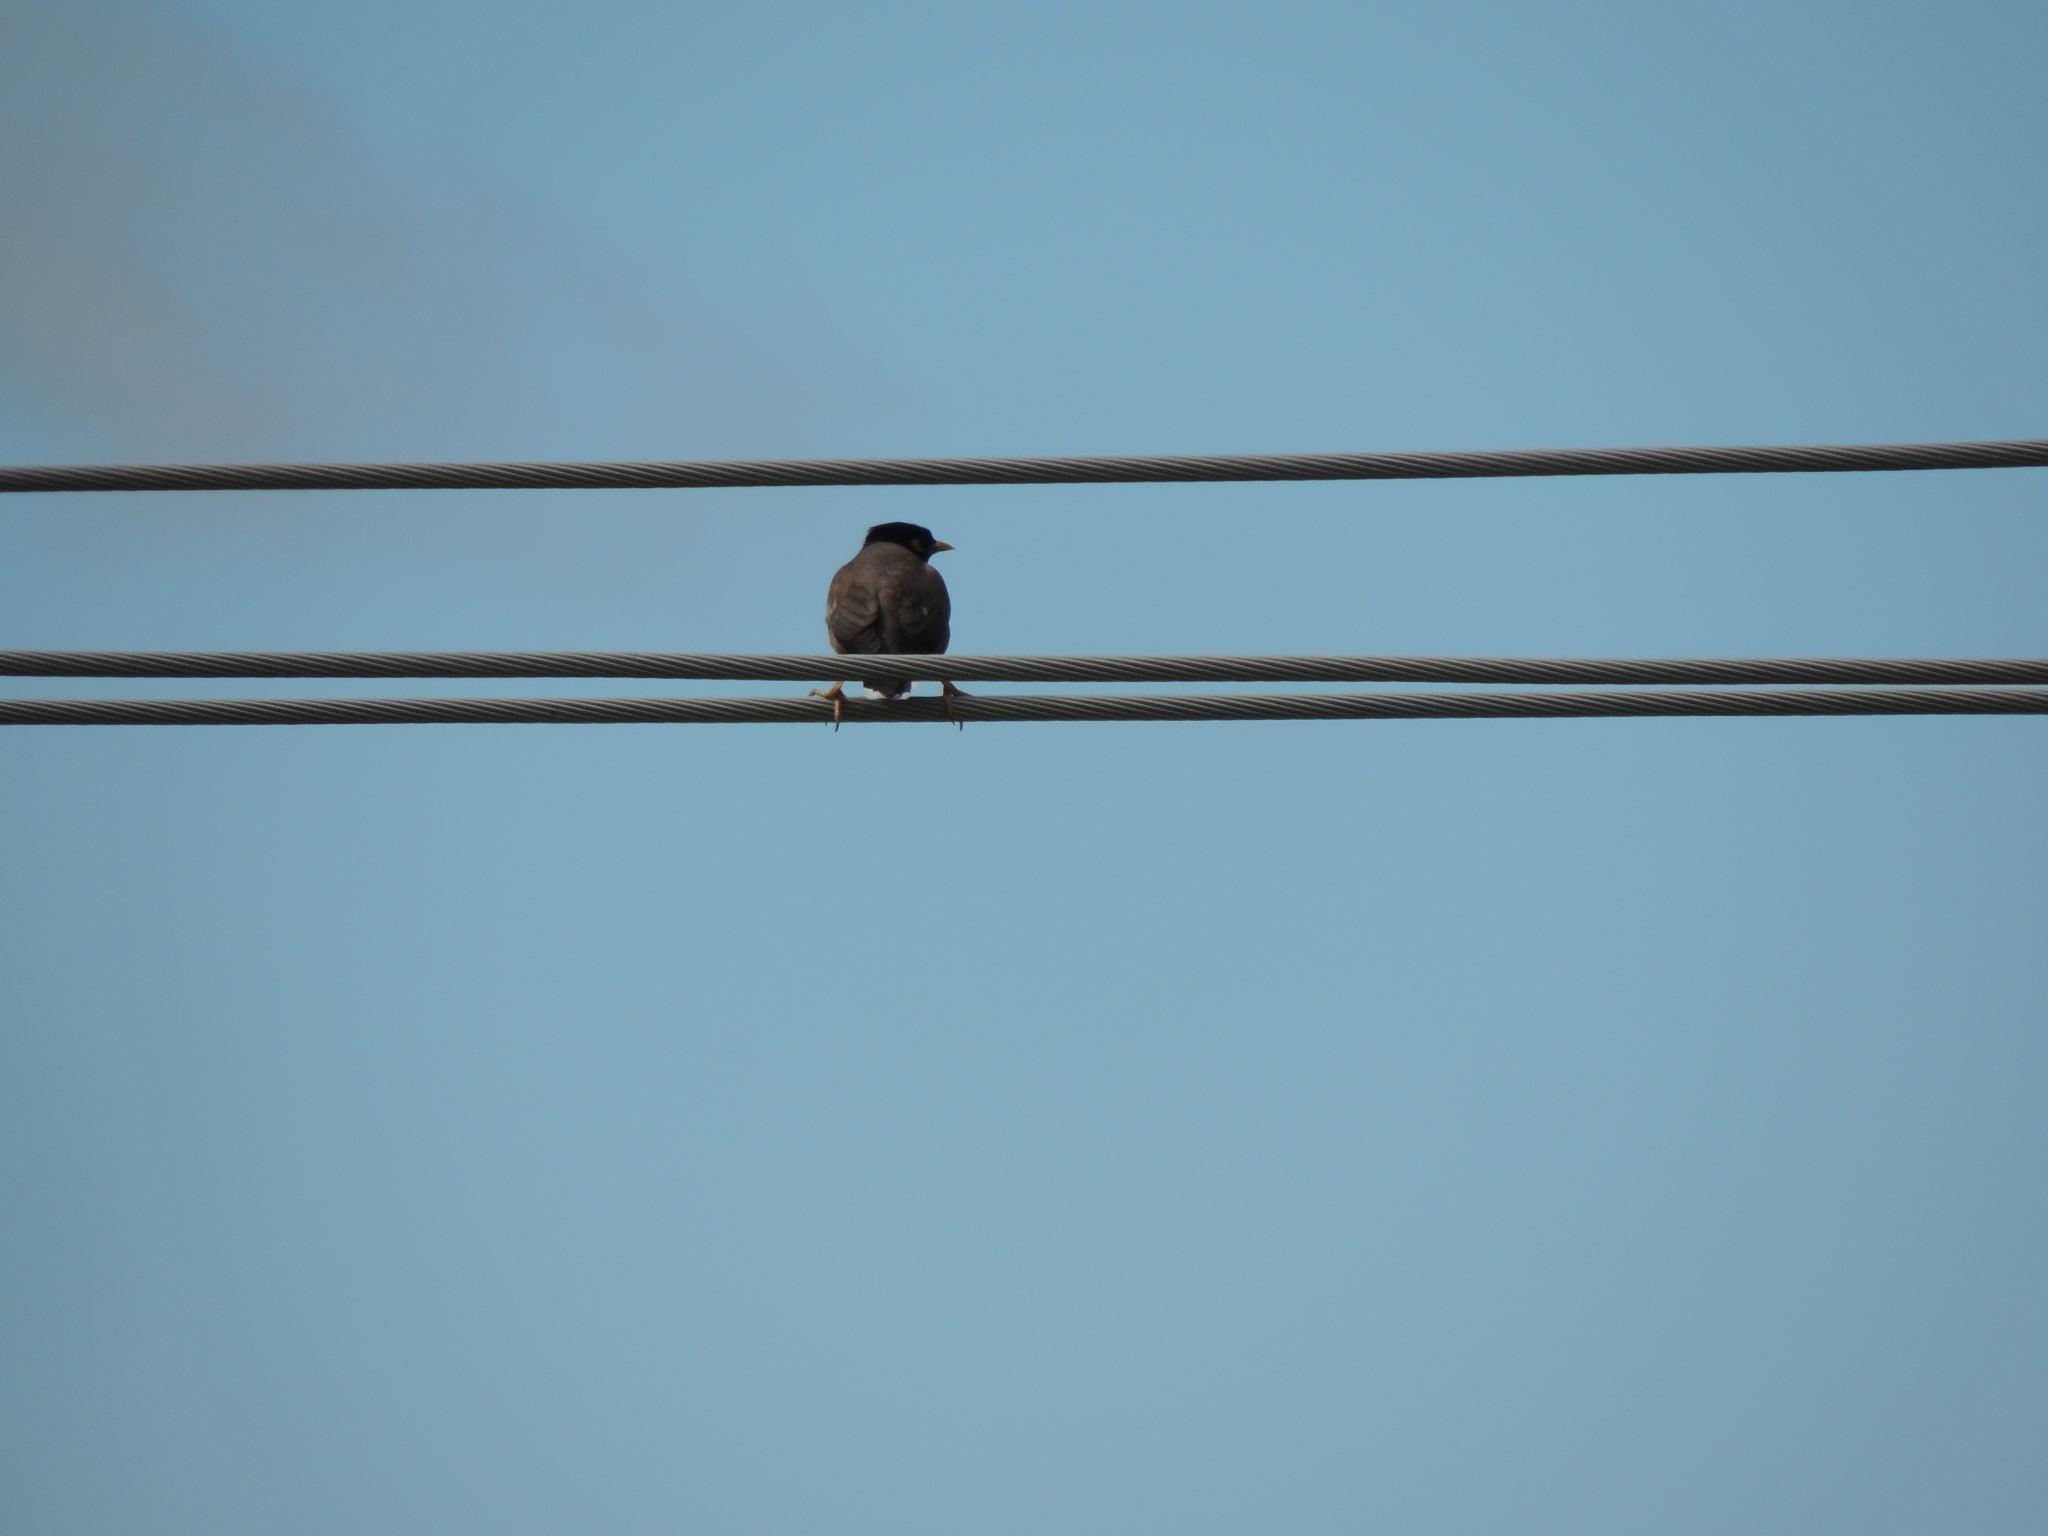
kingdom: Animalia
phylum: Chordata
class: Aves
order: Passeriformes
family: Sturnidae
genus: Acridotheres
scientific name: Acridotheres tristis
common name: Common myna
